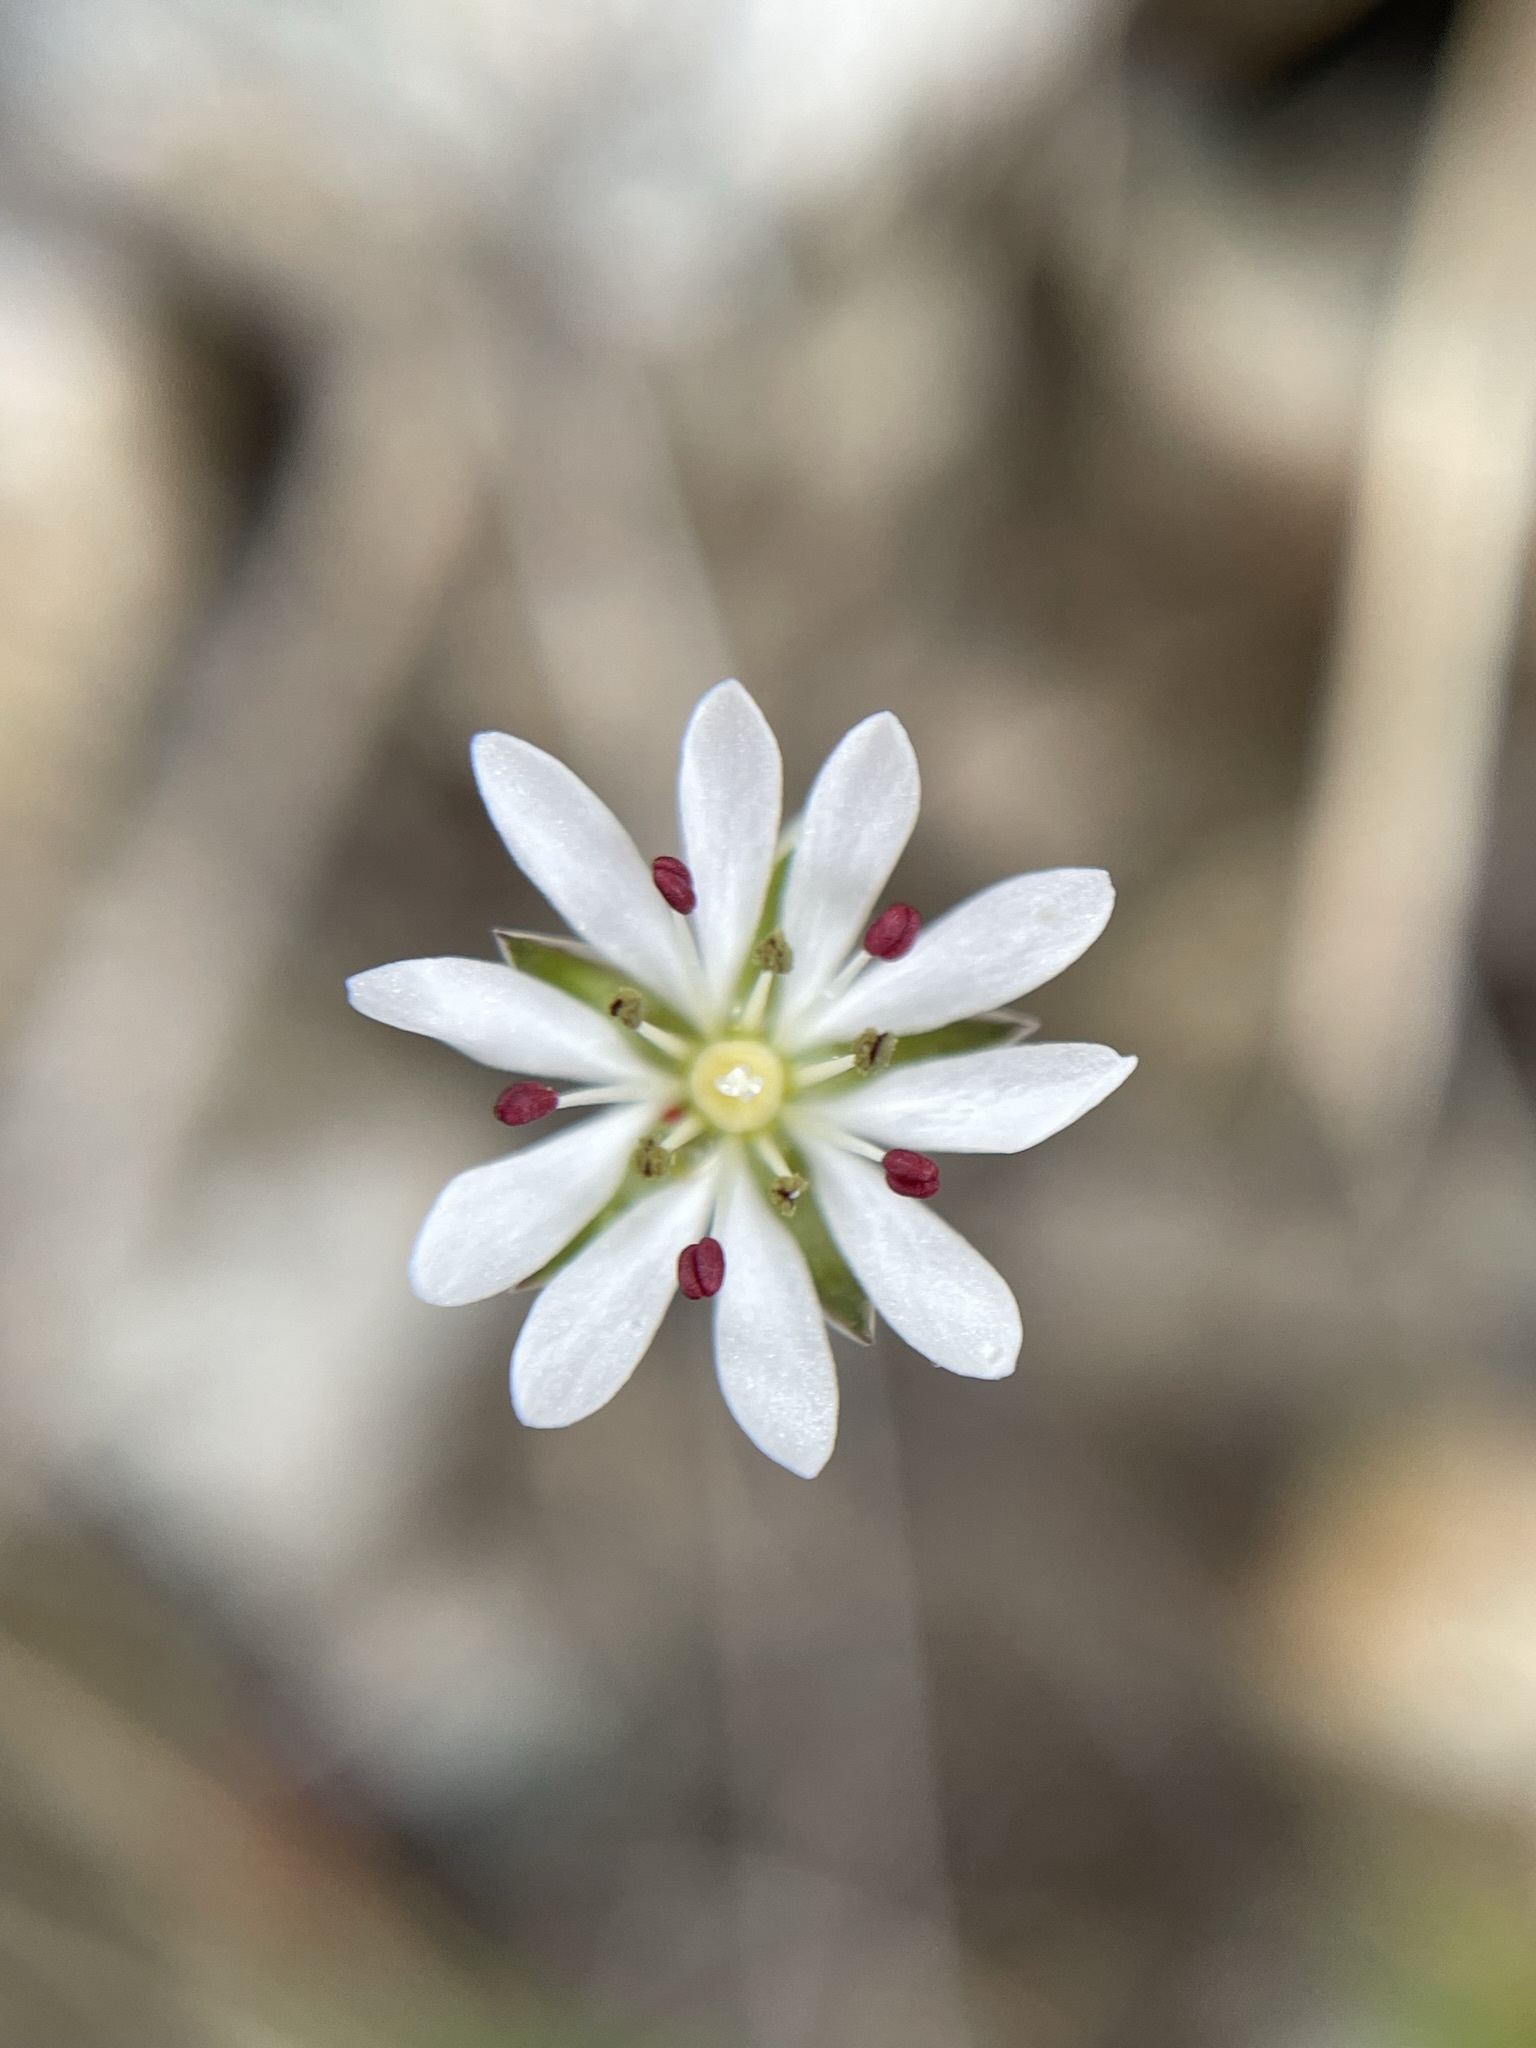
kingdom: Plantae
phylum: Tracheophyta
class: Magnoliopsida
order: Caryophyllales
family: Caryophyllaceae
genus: Stellaria
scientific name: Stellaria gracilenta
